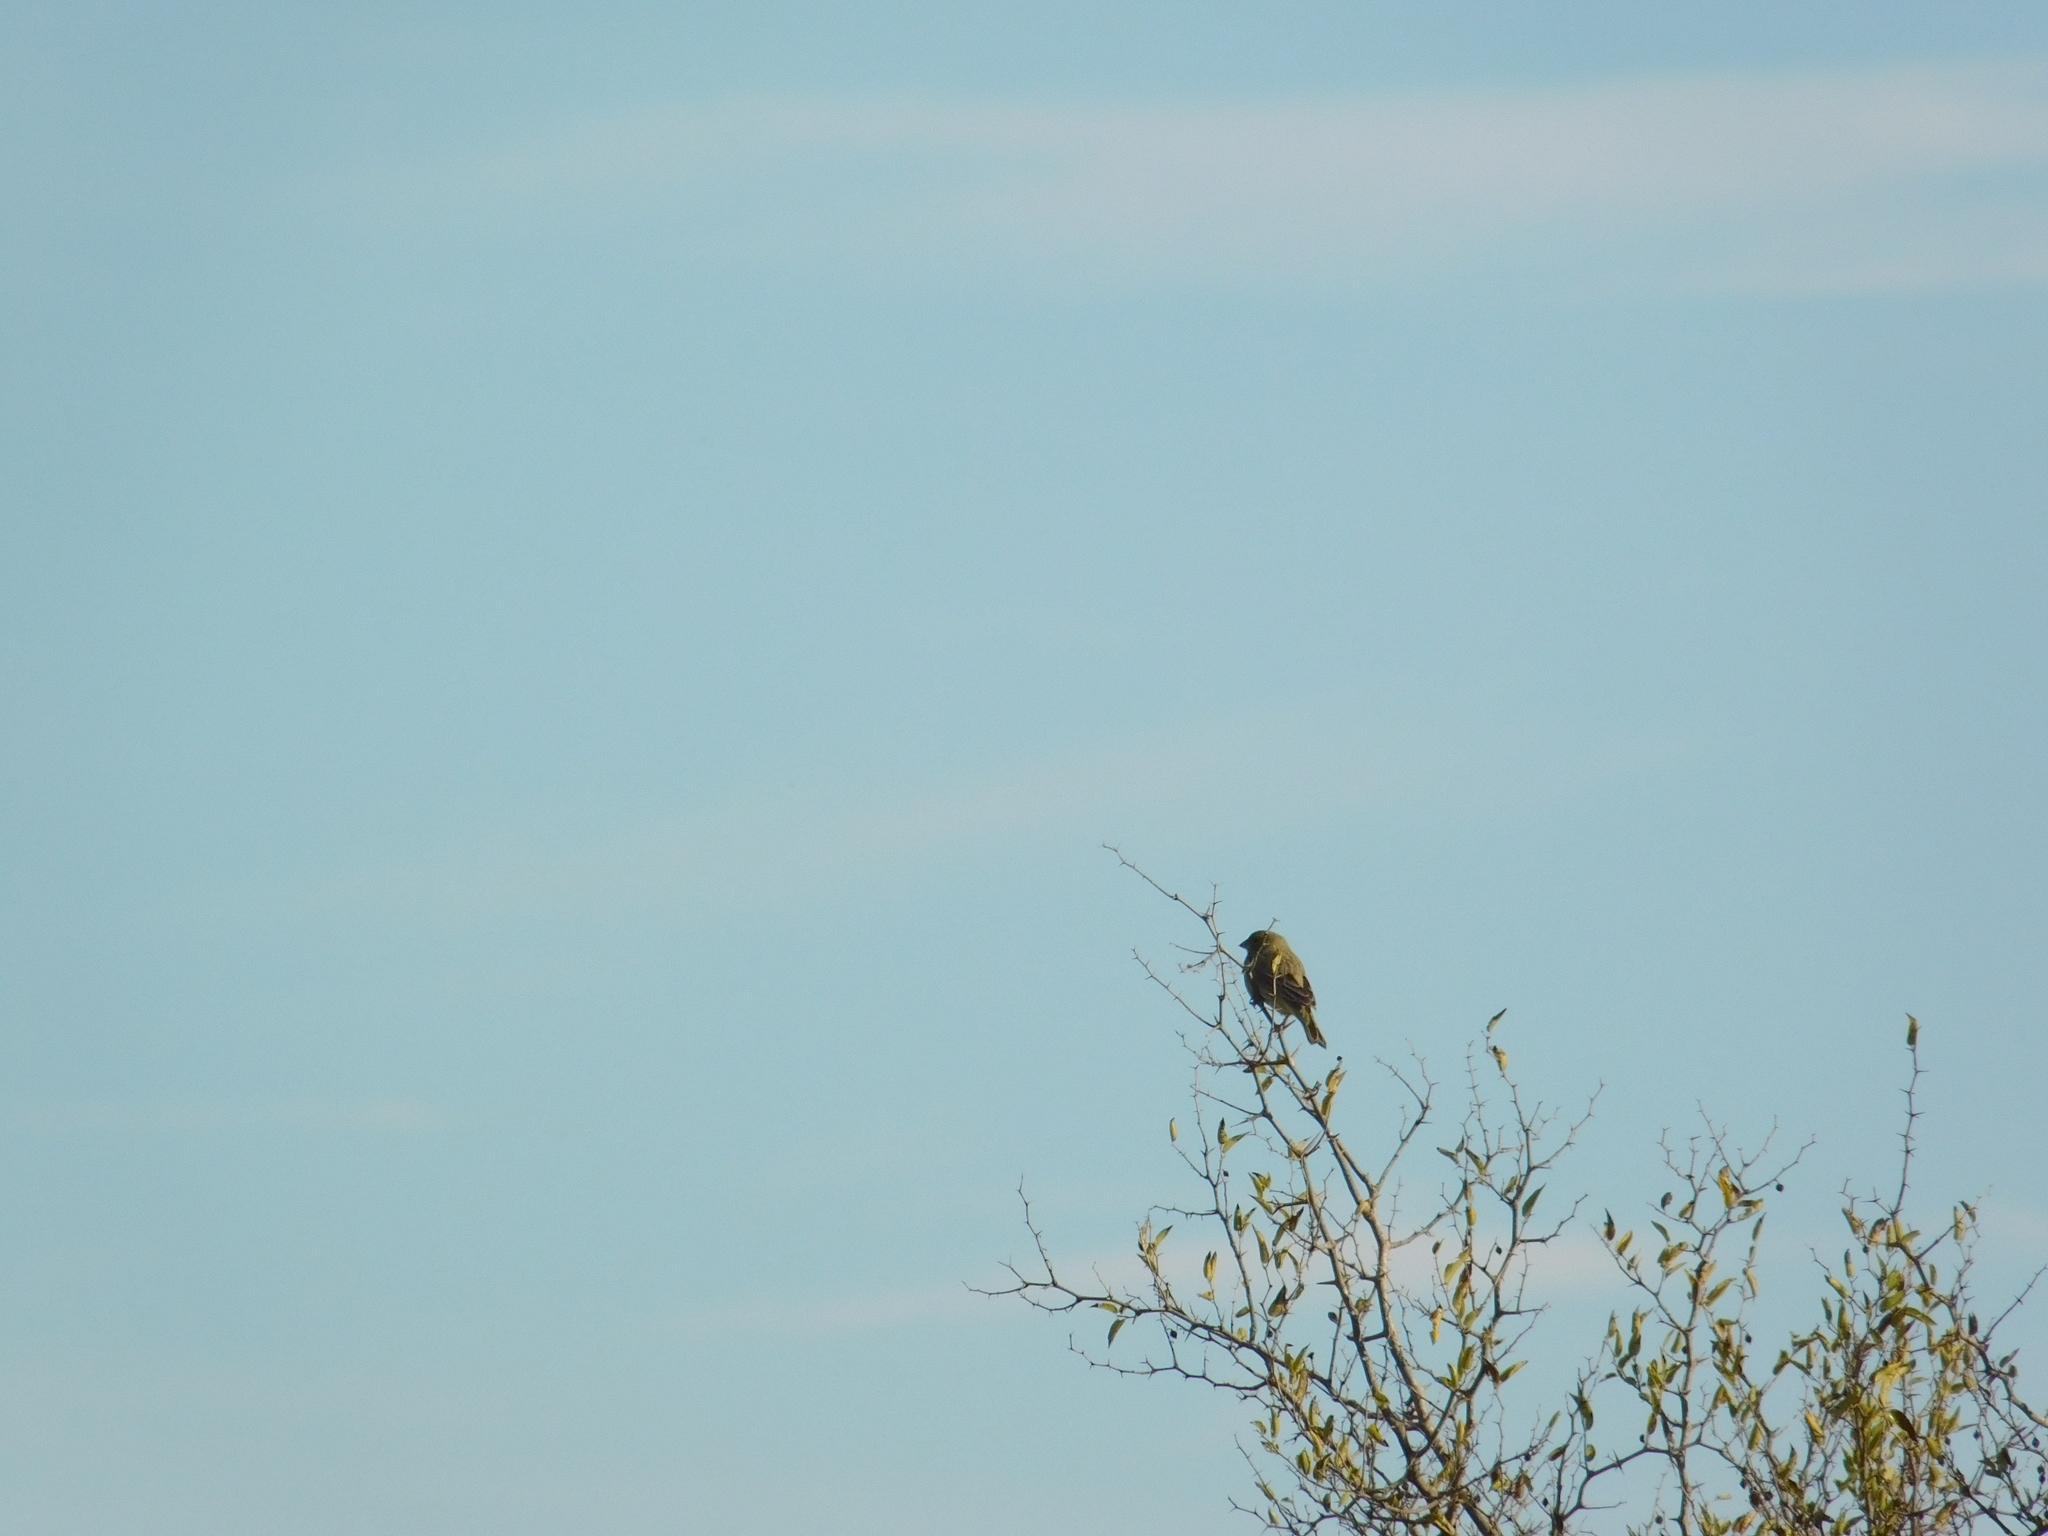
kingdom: Animalia
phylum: Chordata
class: Aves
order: Passeriformes
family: Fringillidae
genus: Spinus
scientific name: Spinus magellanicus
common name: Hooded siskin
